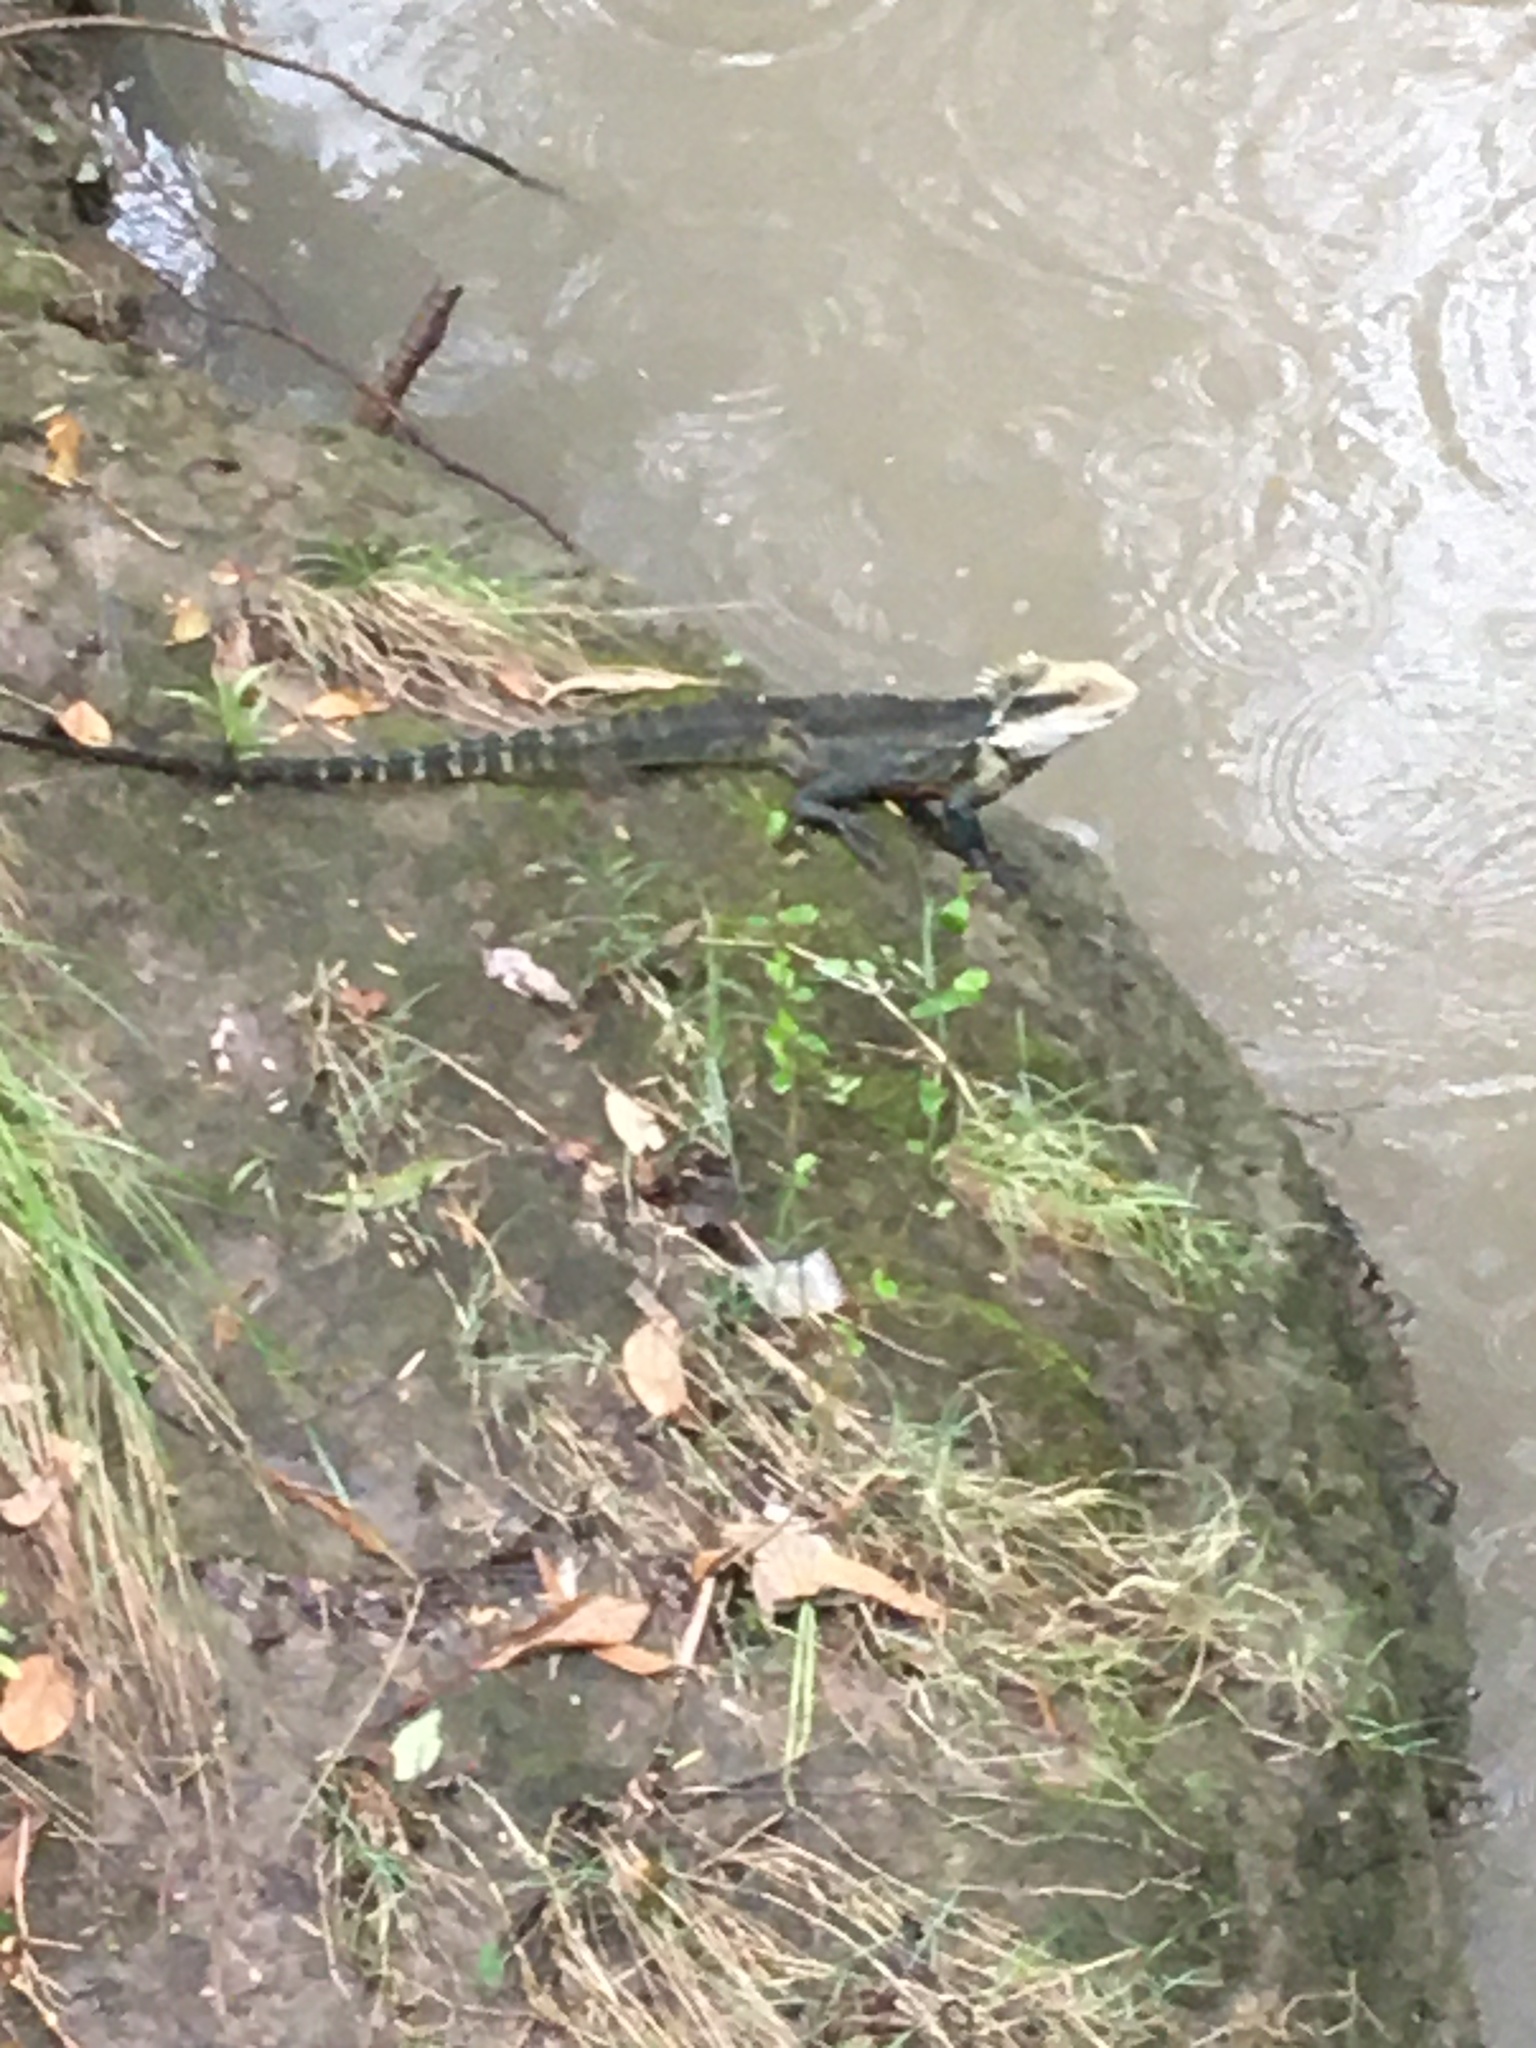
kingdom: Animalia
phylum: Chordata
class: Squamata
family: Agamidae
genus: Intellagama
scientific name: Intellagama lesueurii
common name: Eastern water dragon
